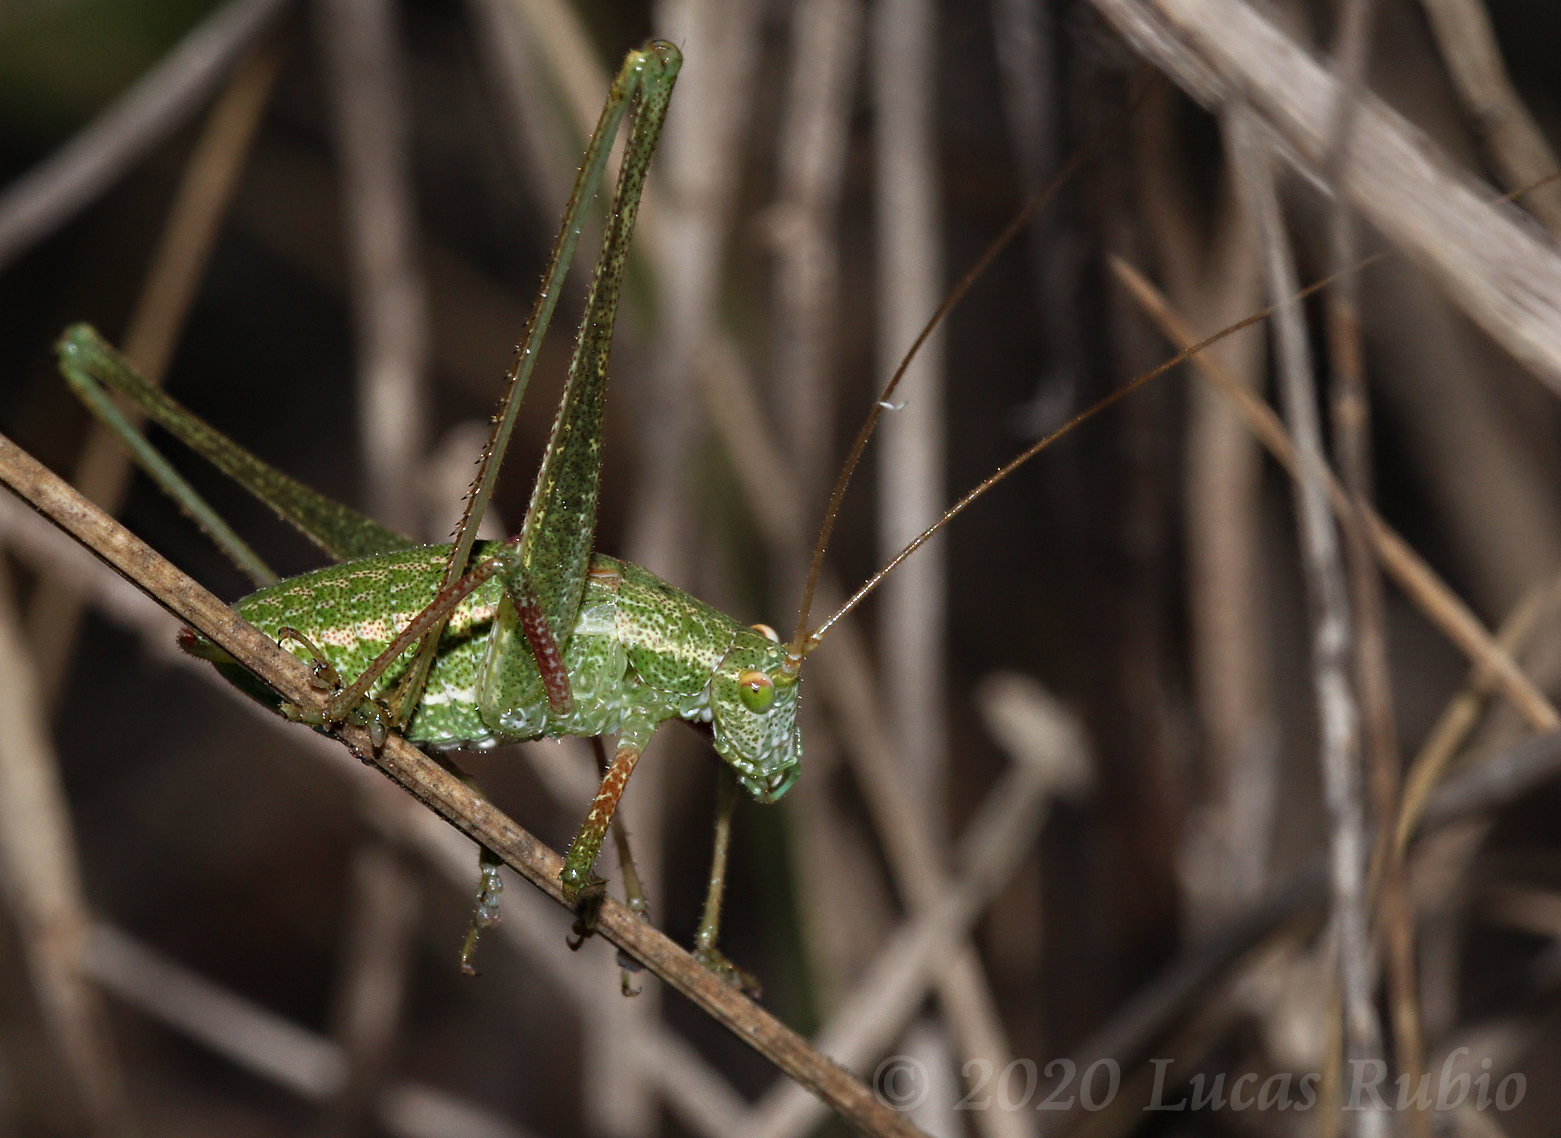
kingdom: Animalia
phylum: Arthropoda
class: Insecta
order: Orthoptera
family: Tettigoniidae
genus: Anisophya
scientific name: Anisophya punctinervis
